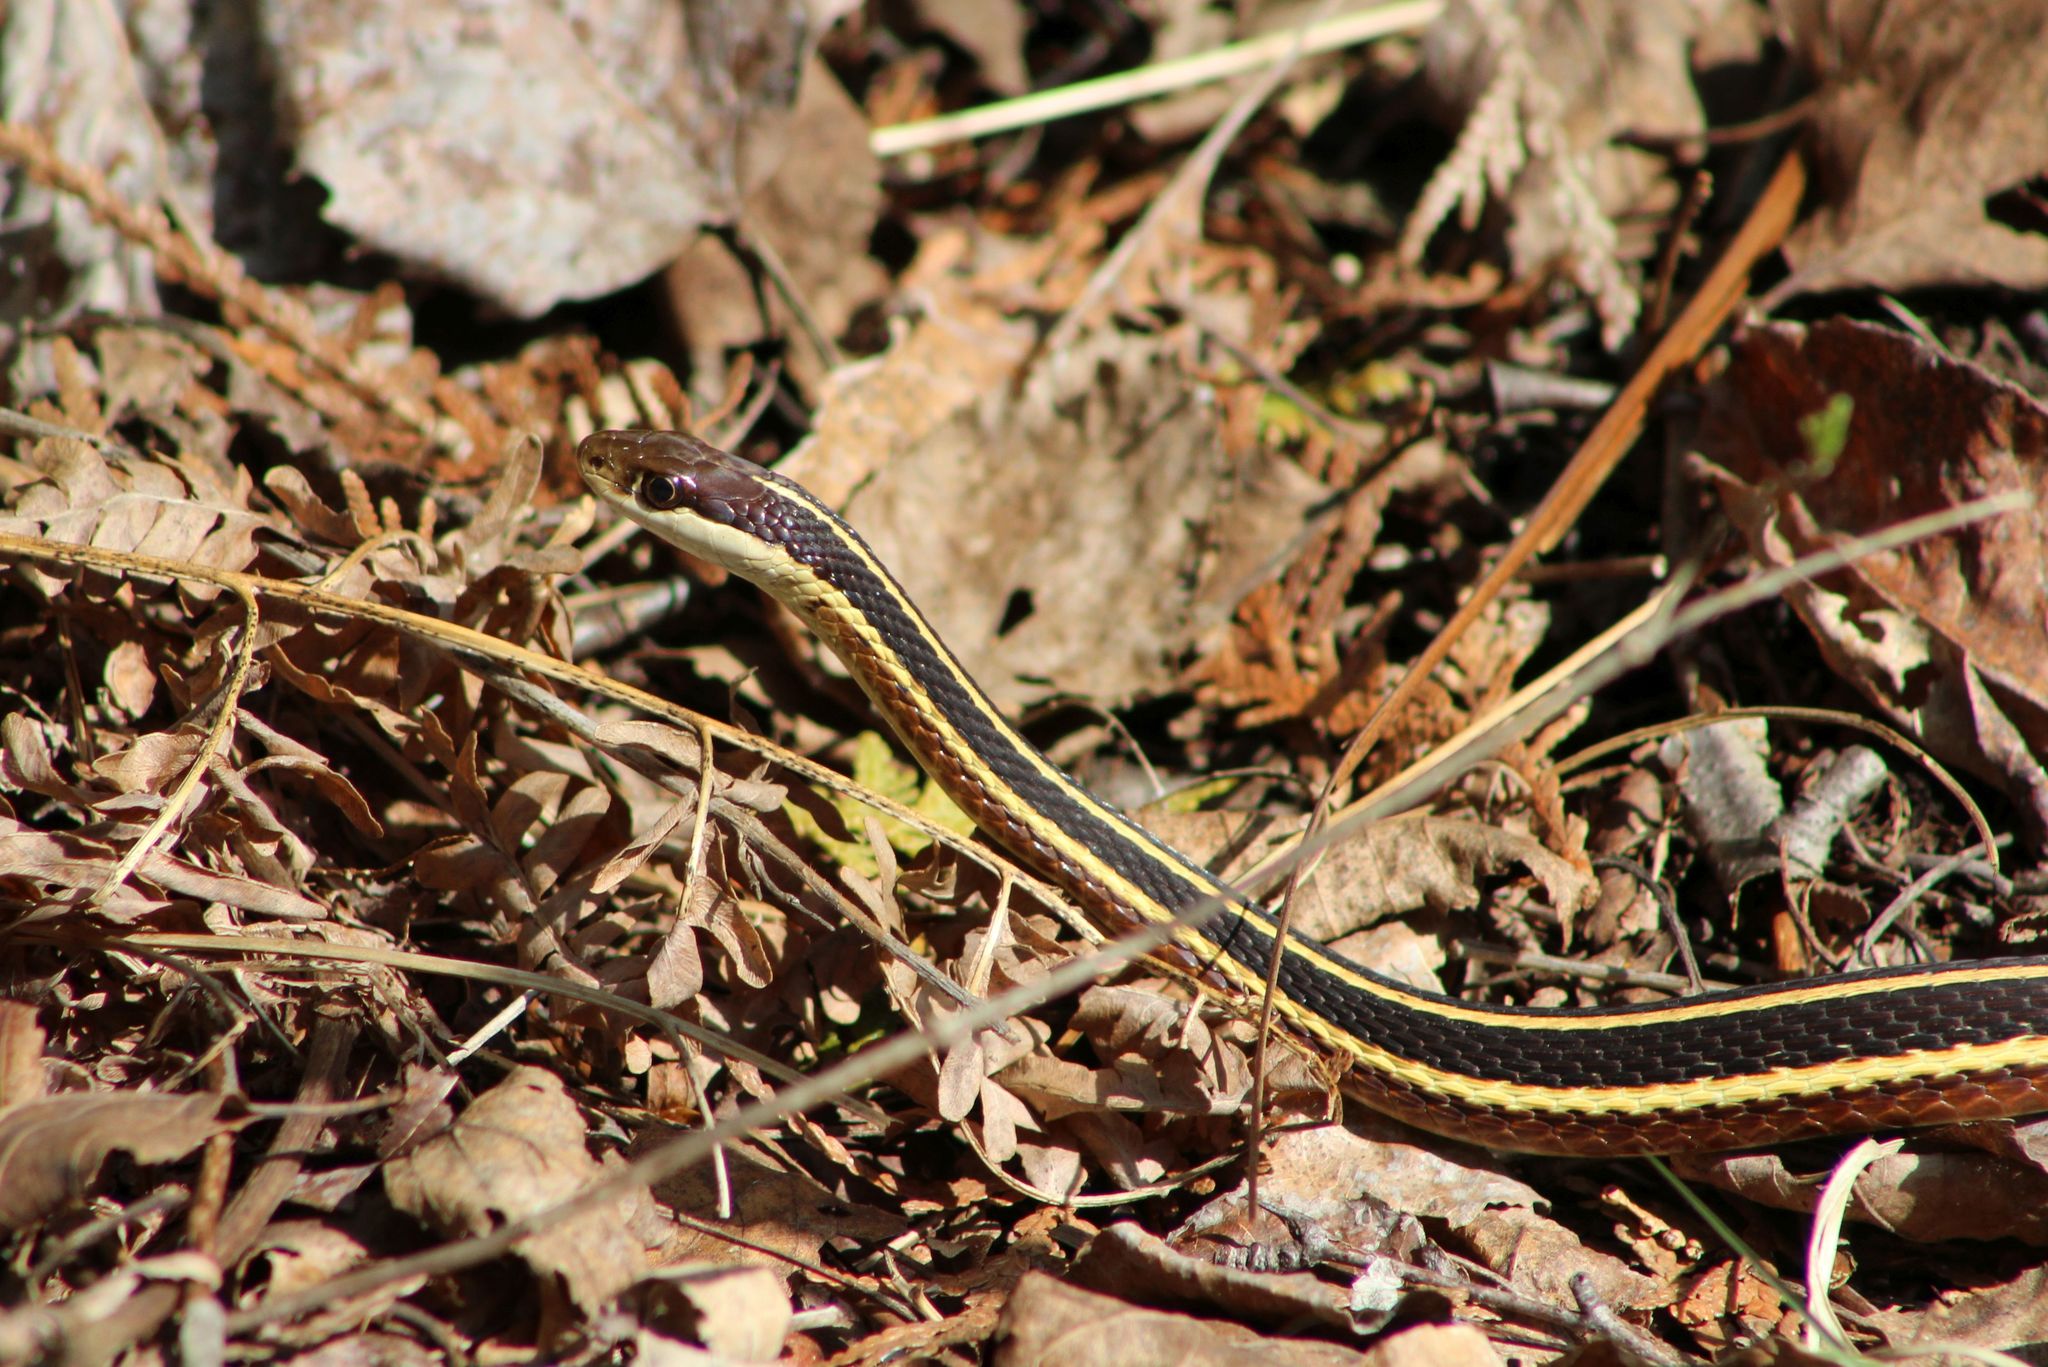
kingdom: Animalia
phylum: Chordata
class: Squamata
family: Colubridae
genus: Thamnophis
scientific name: Thamnophis saurita
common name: Eastern ribbonsnake
